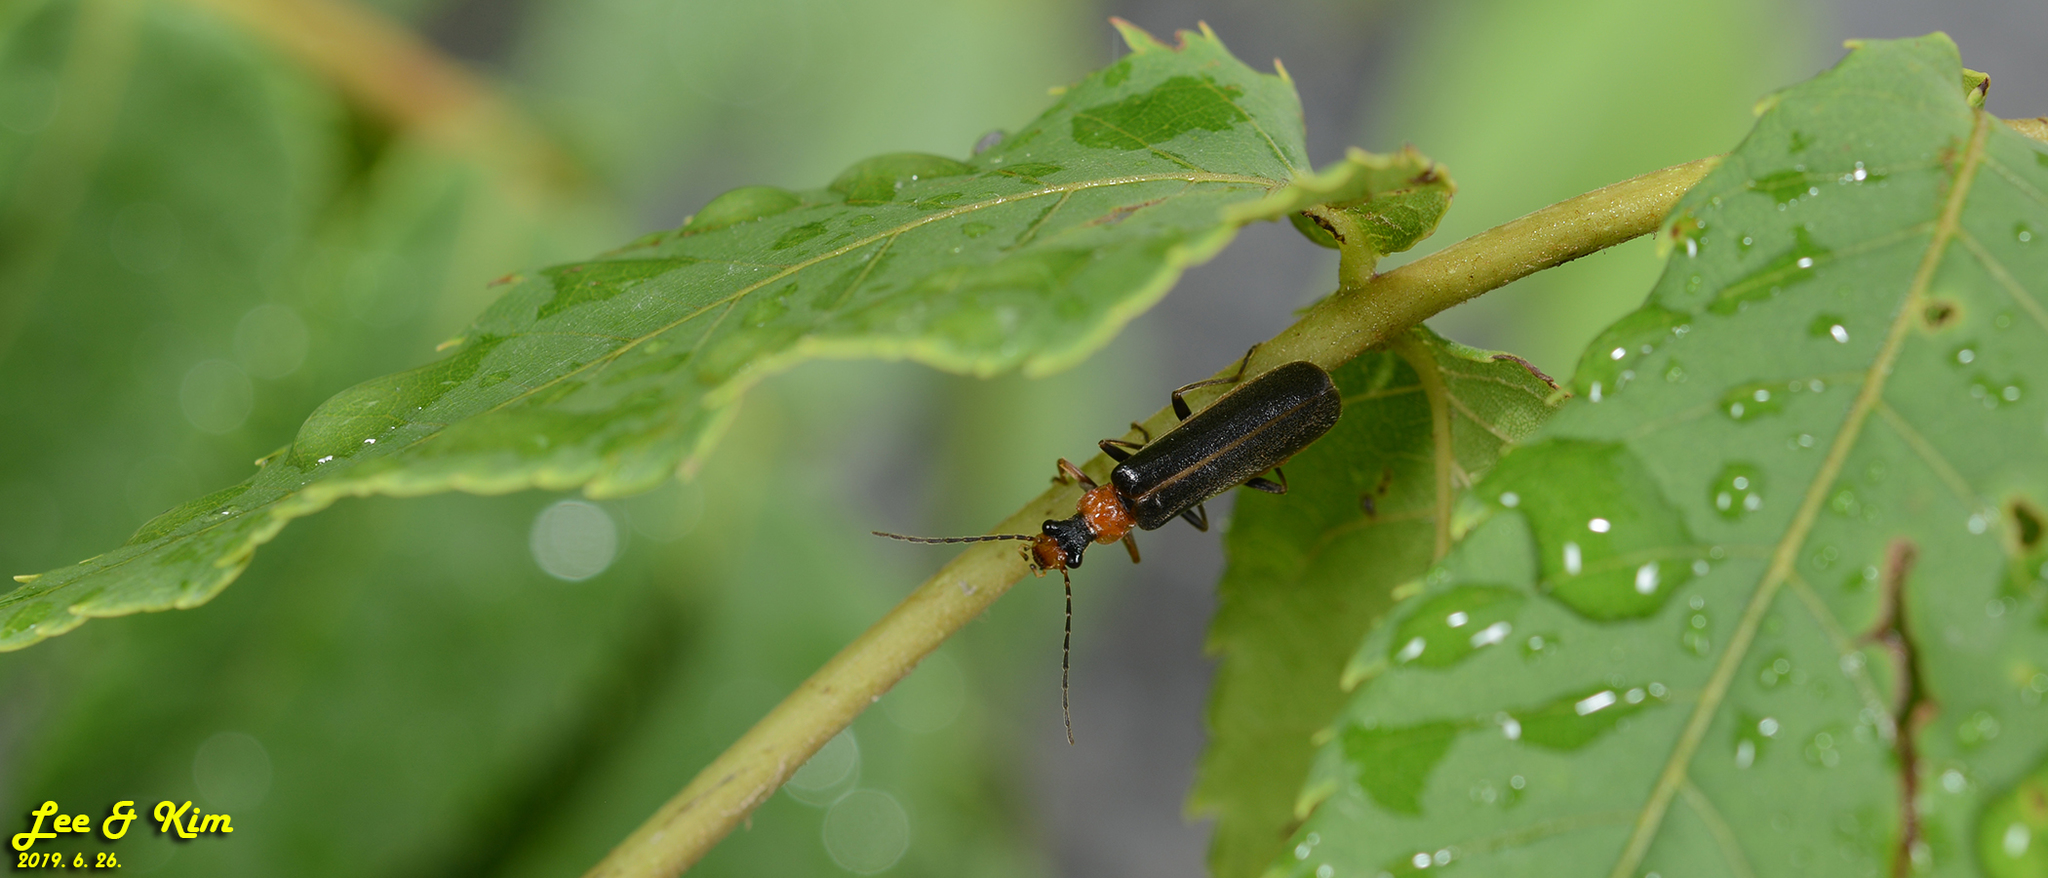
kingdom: Animalia
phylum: Arthropoda
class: Insecta
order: Coleoptera
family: Cantharidae
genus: Hatchiana
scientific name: Hatchiana glochidiatus
